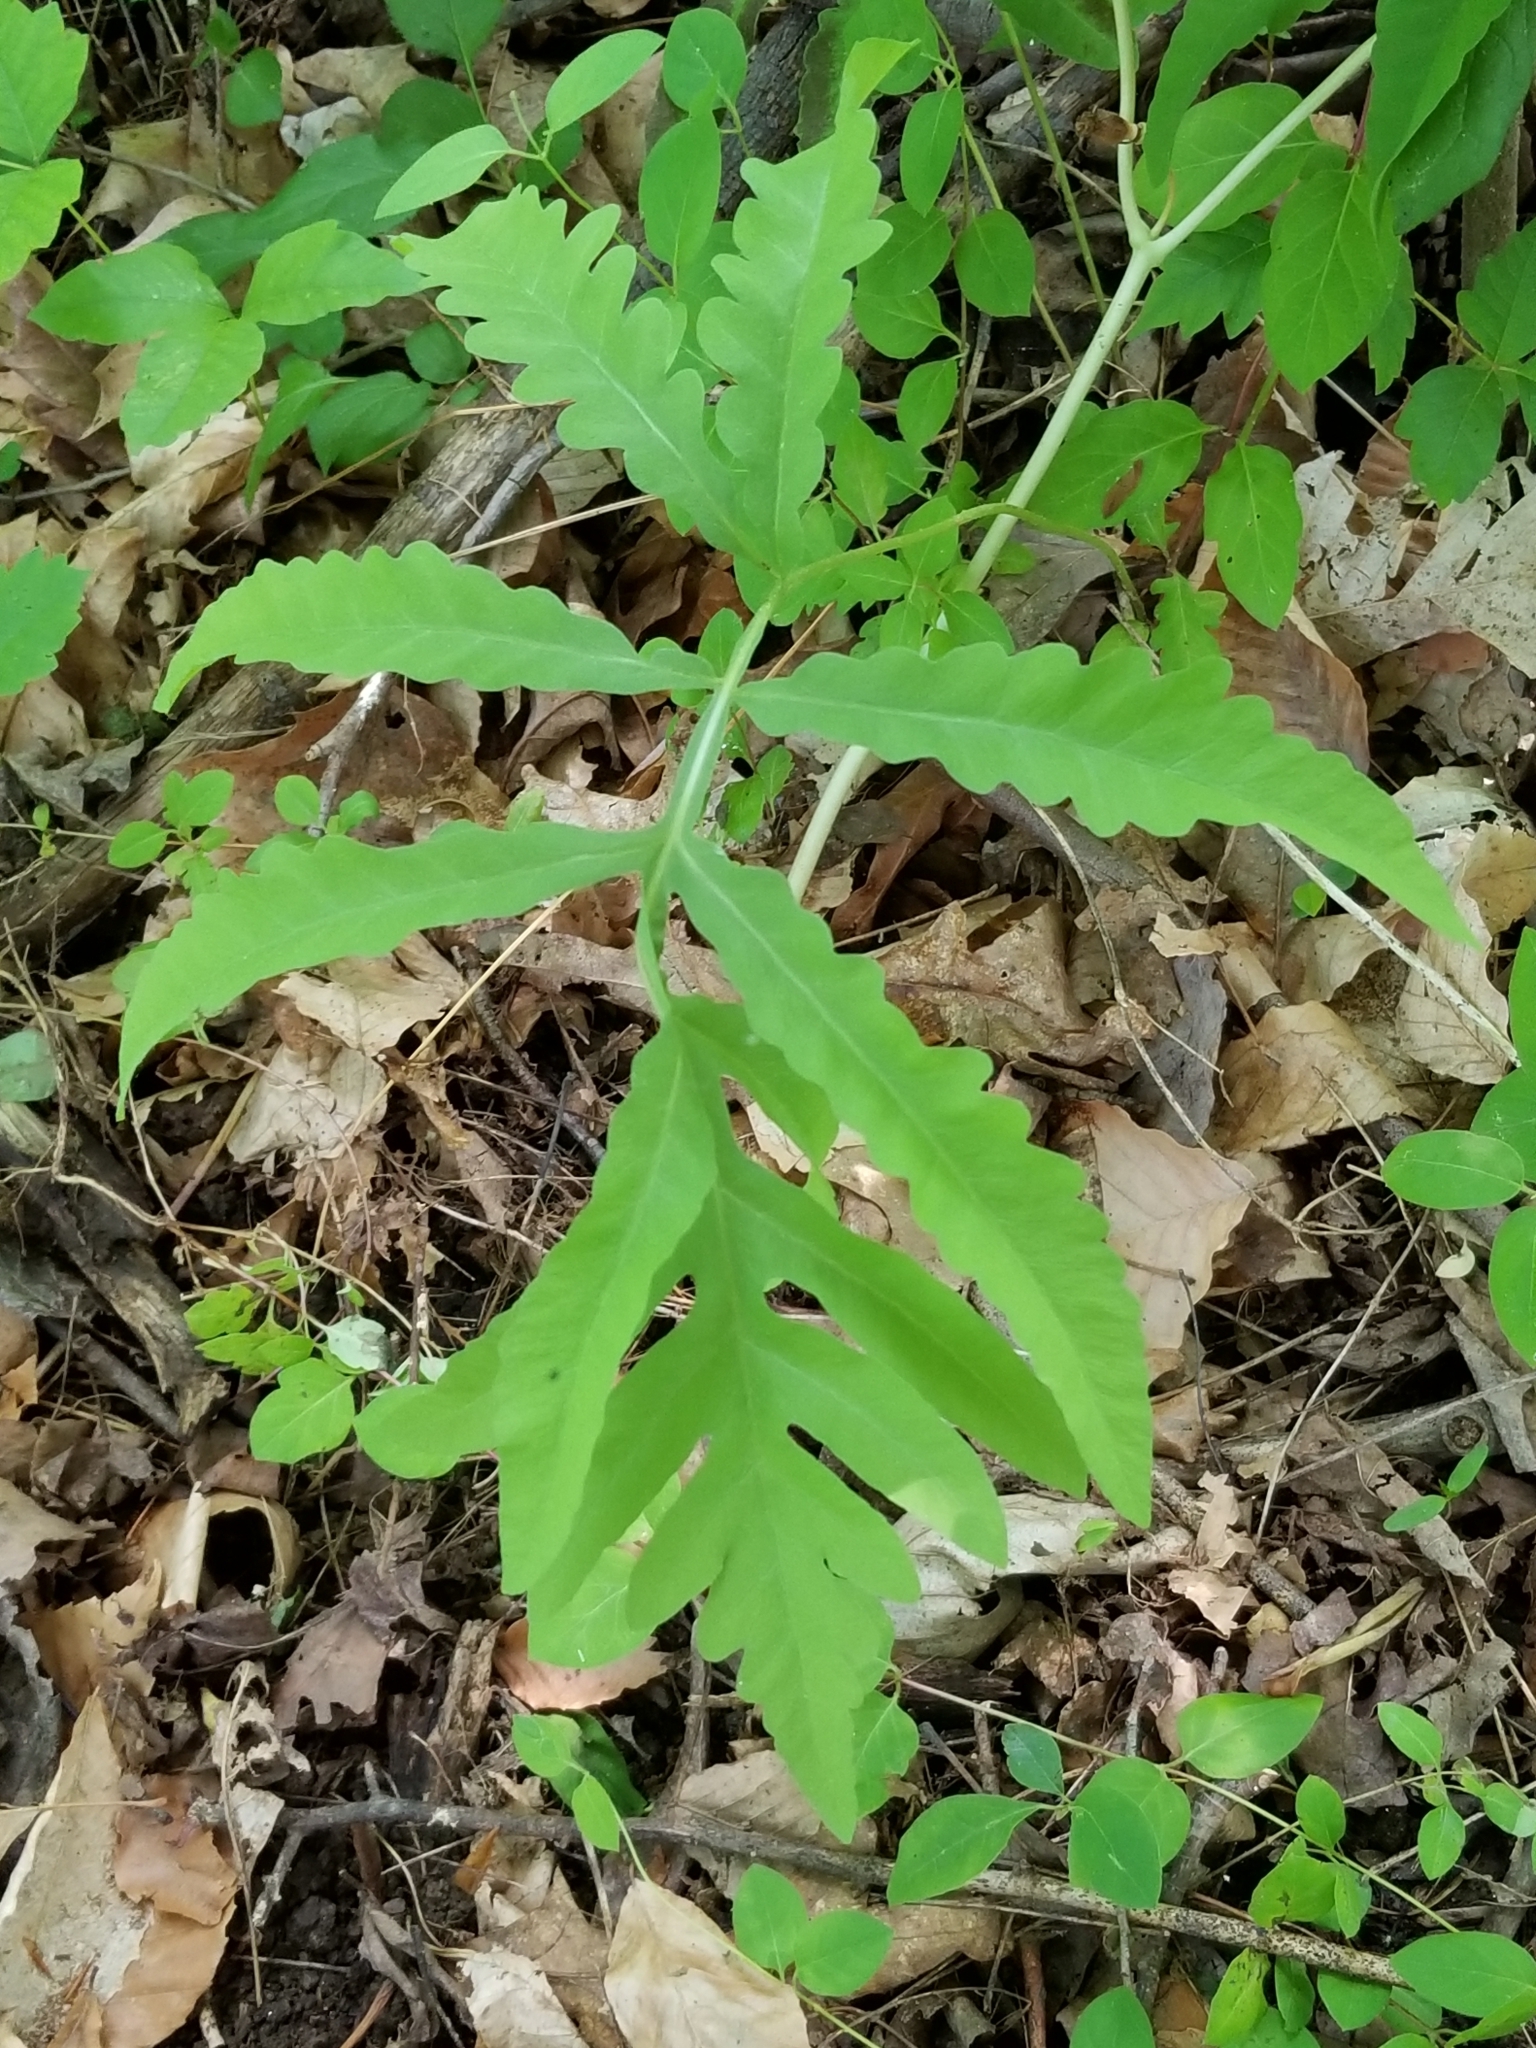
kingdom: Plantae
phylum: Tracheophyta
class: Polypodiopsida
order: Polypodiales
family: Onocleaceae
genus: Onoclea
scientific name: Onoclea sensibilis
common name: Sensitive fern
